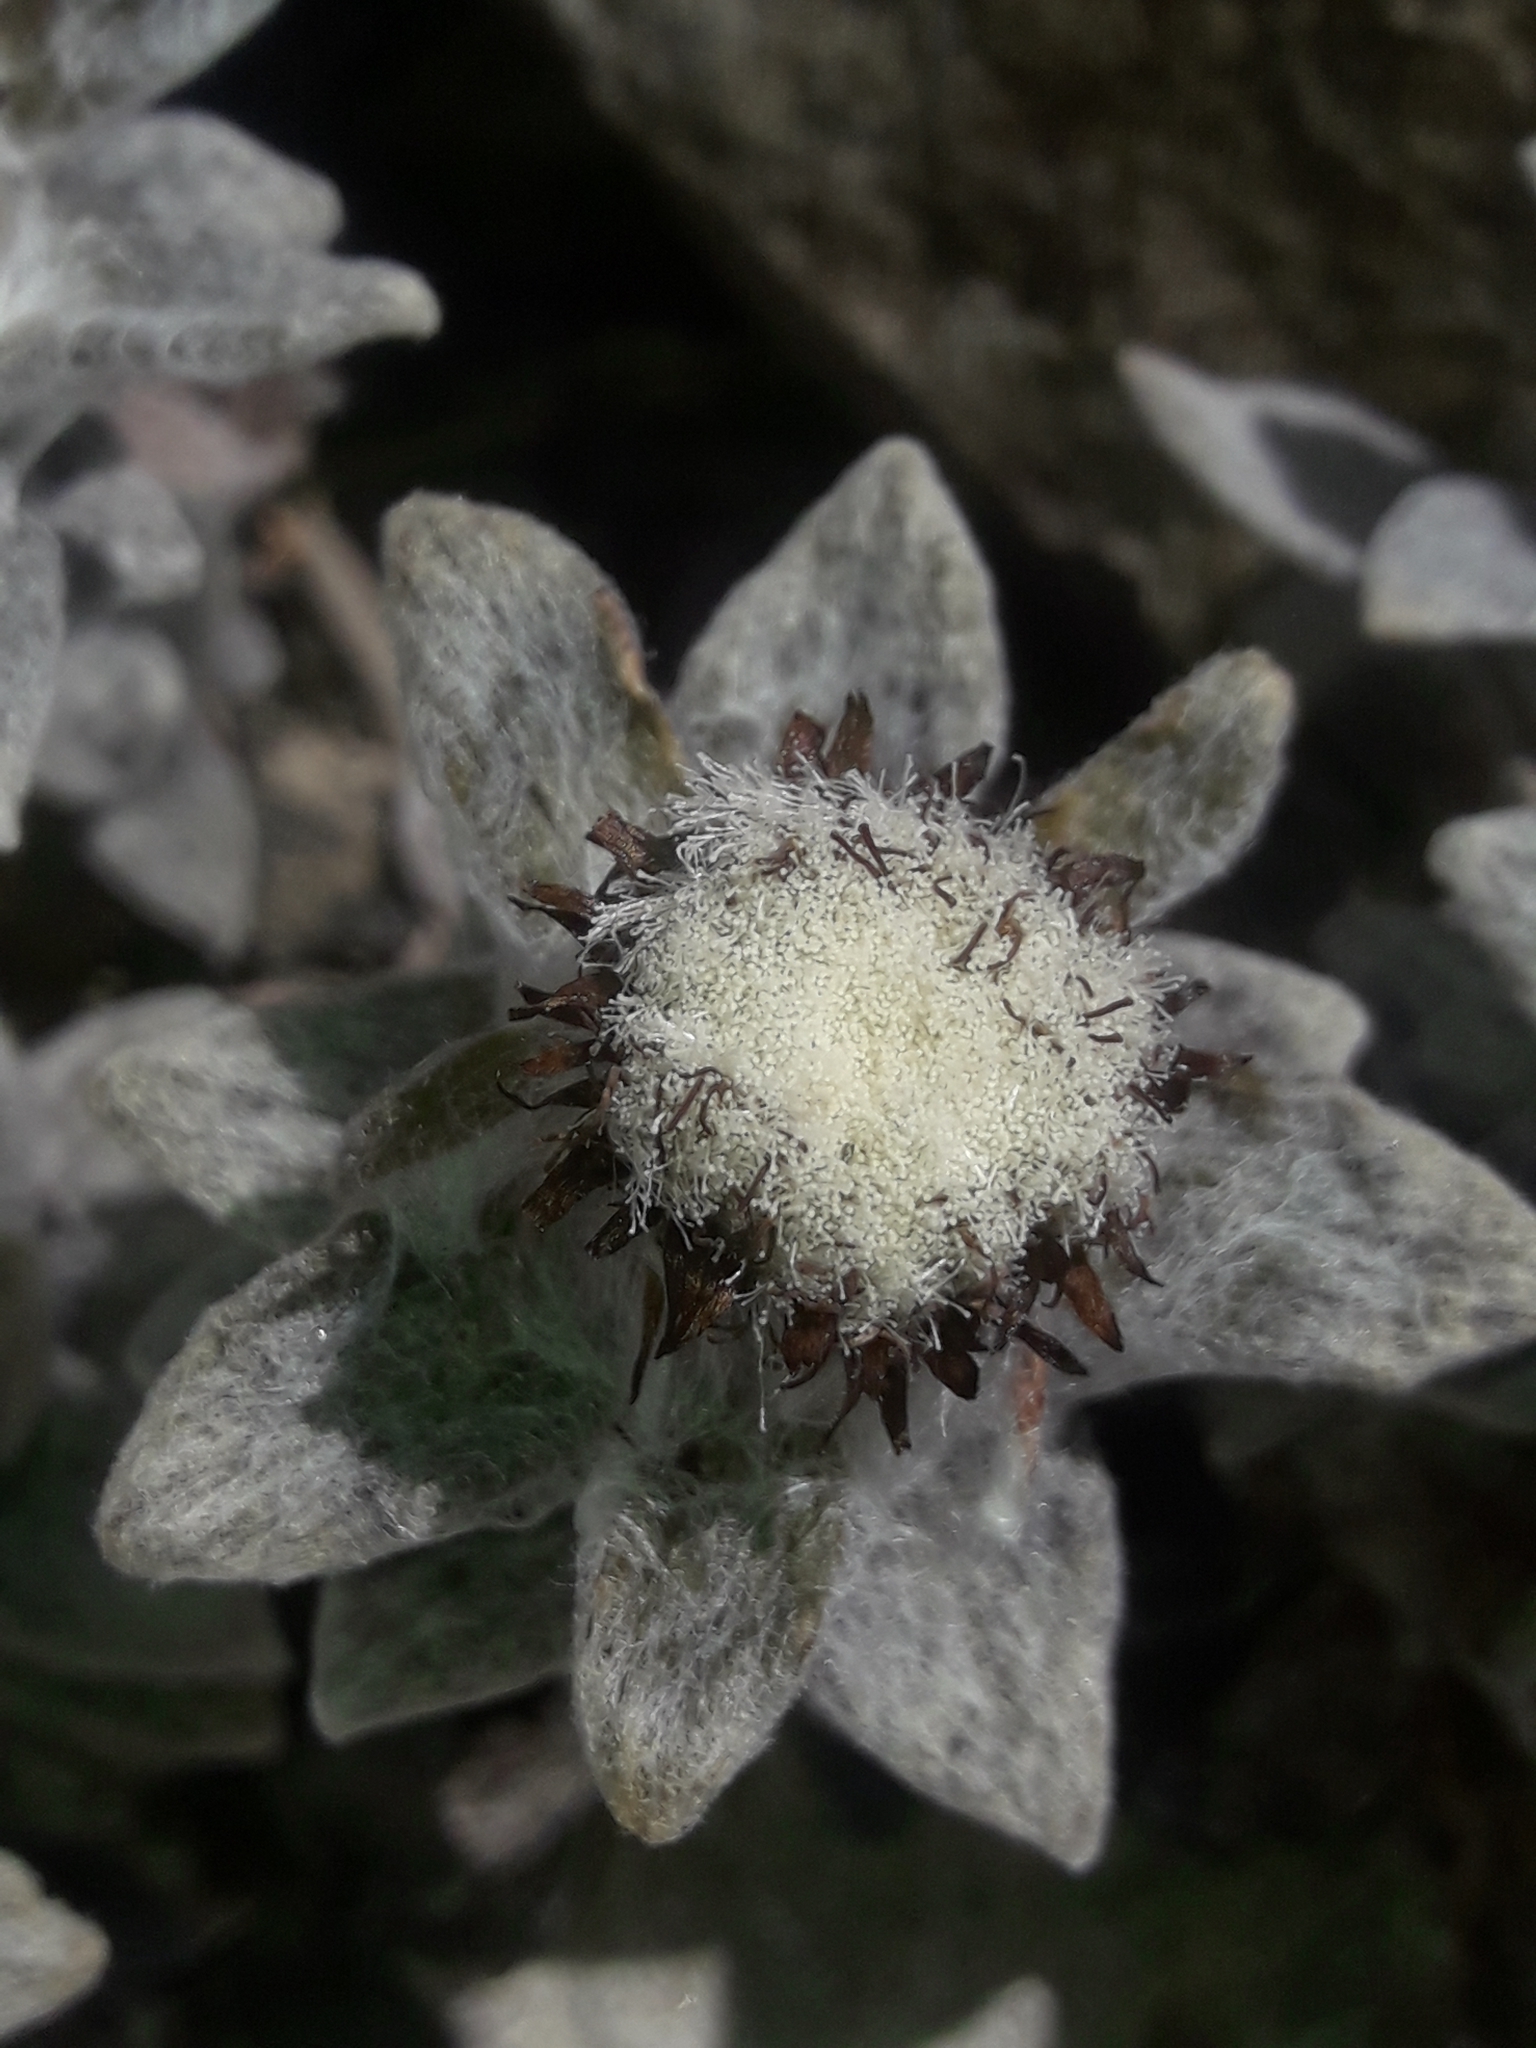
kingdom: Plantae
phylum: Tracheophyta
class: Magnoliopsida
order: Asterales
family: Asteraceae
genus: Haastia
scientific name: Haastia sinclairii
